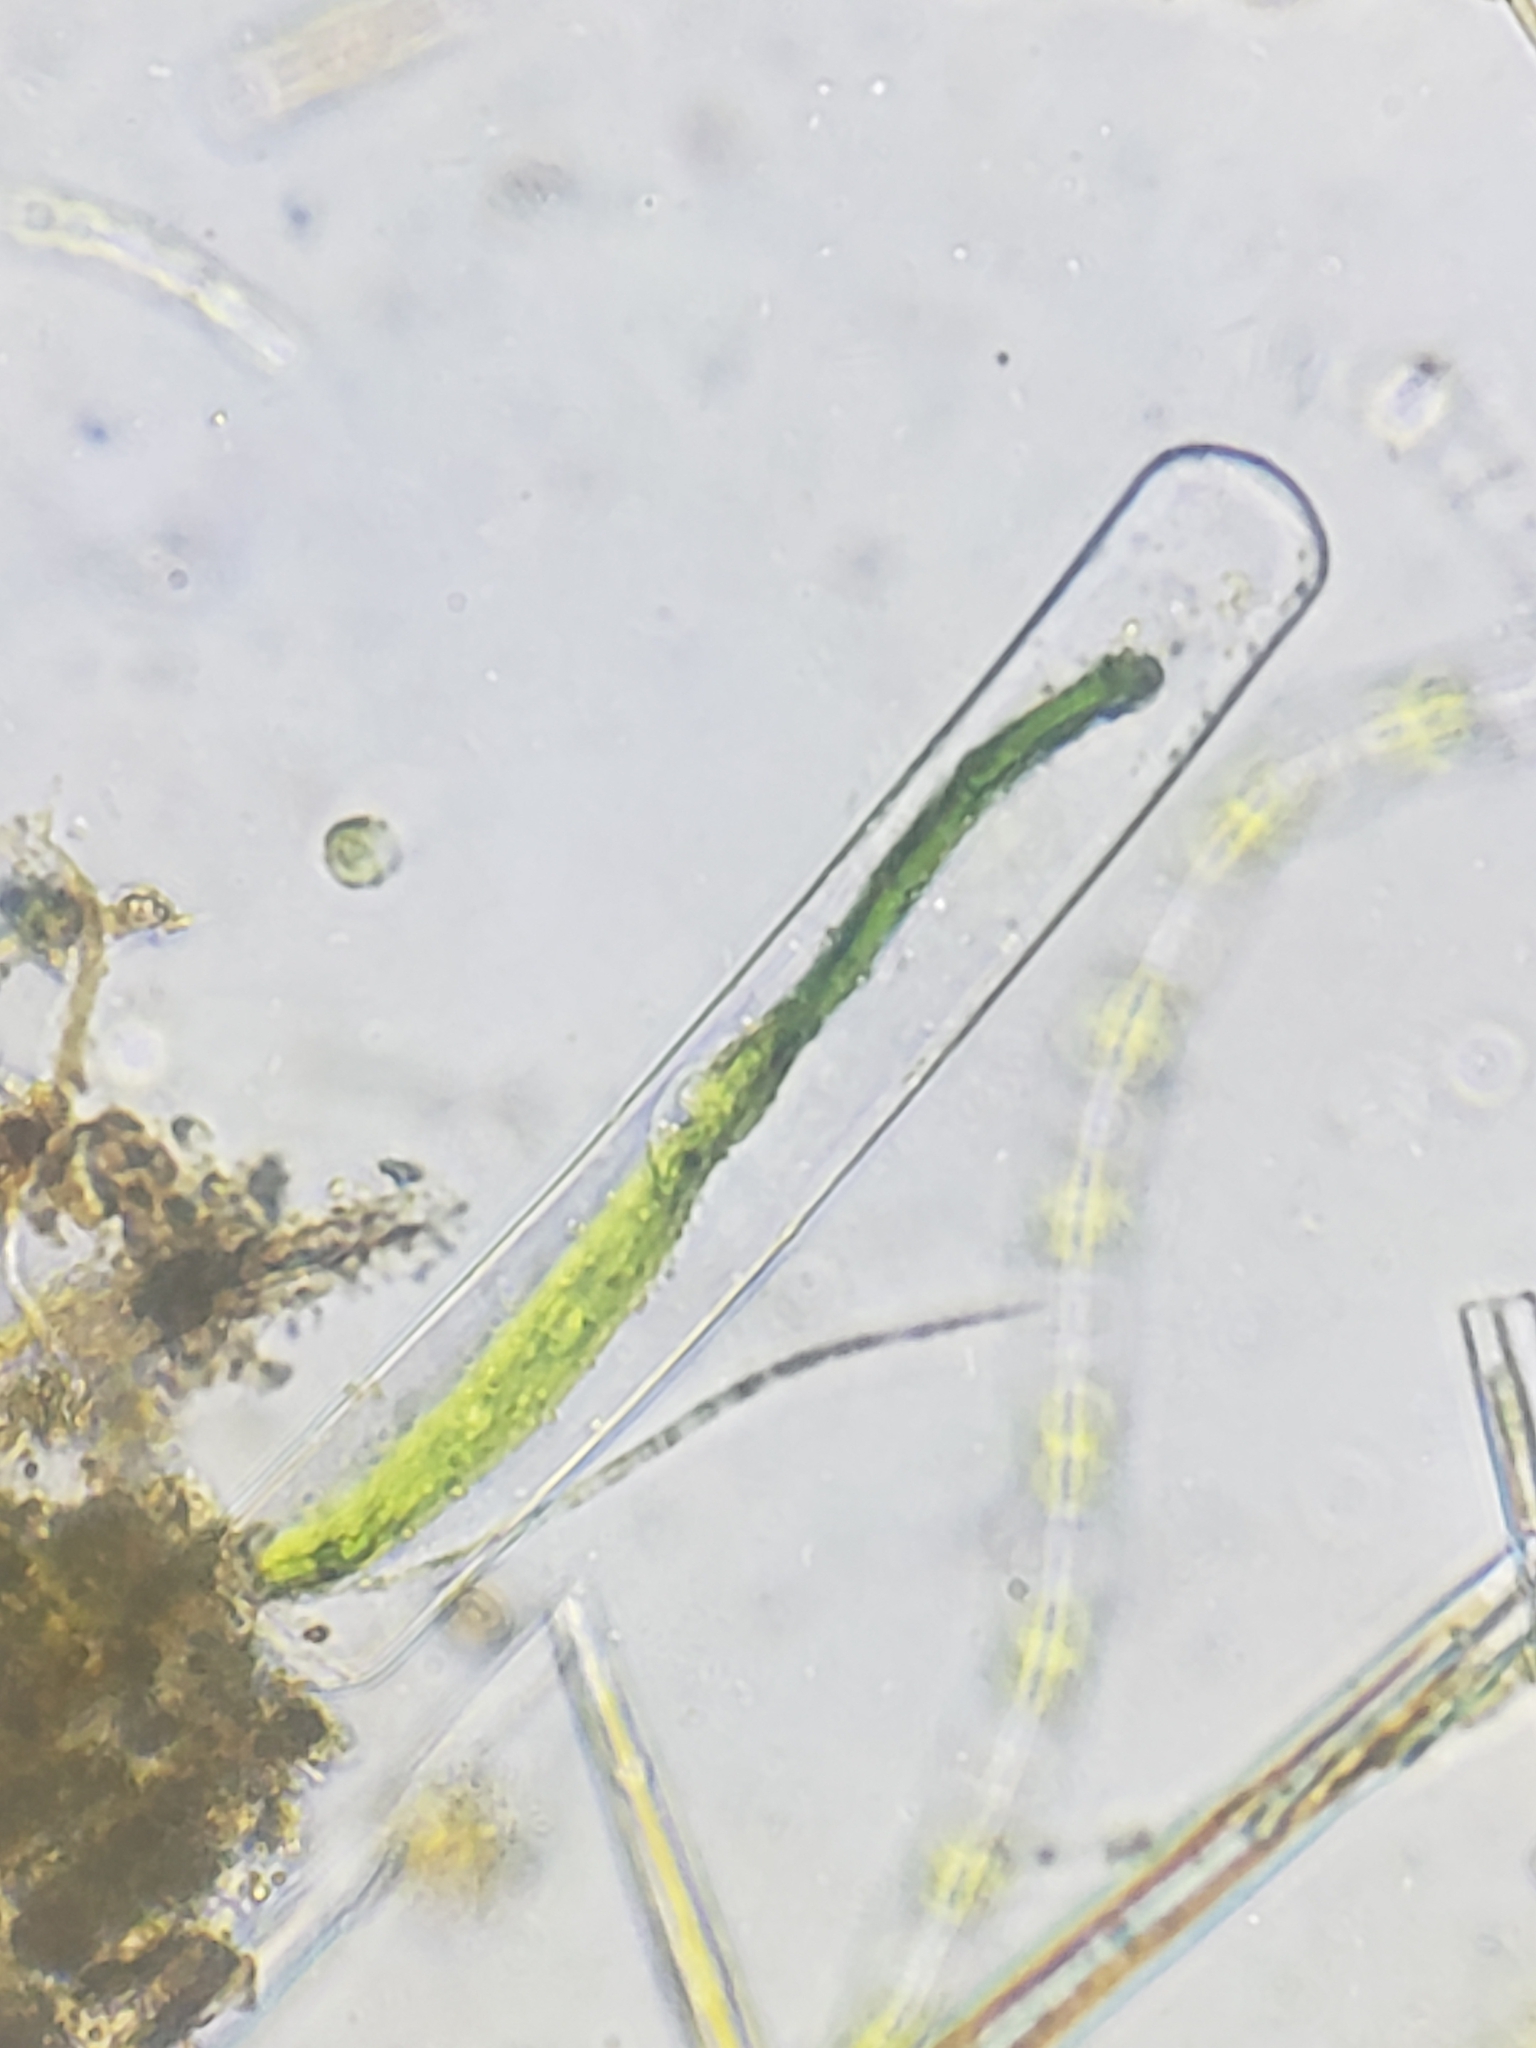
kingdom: Plantae
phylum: Charophyta
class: Zygnematophyceae
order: Zygnematales
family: Zygnemataceae
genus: Mougeotia
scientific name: Mougeotia
